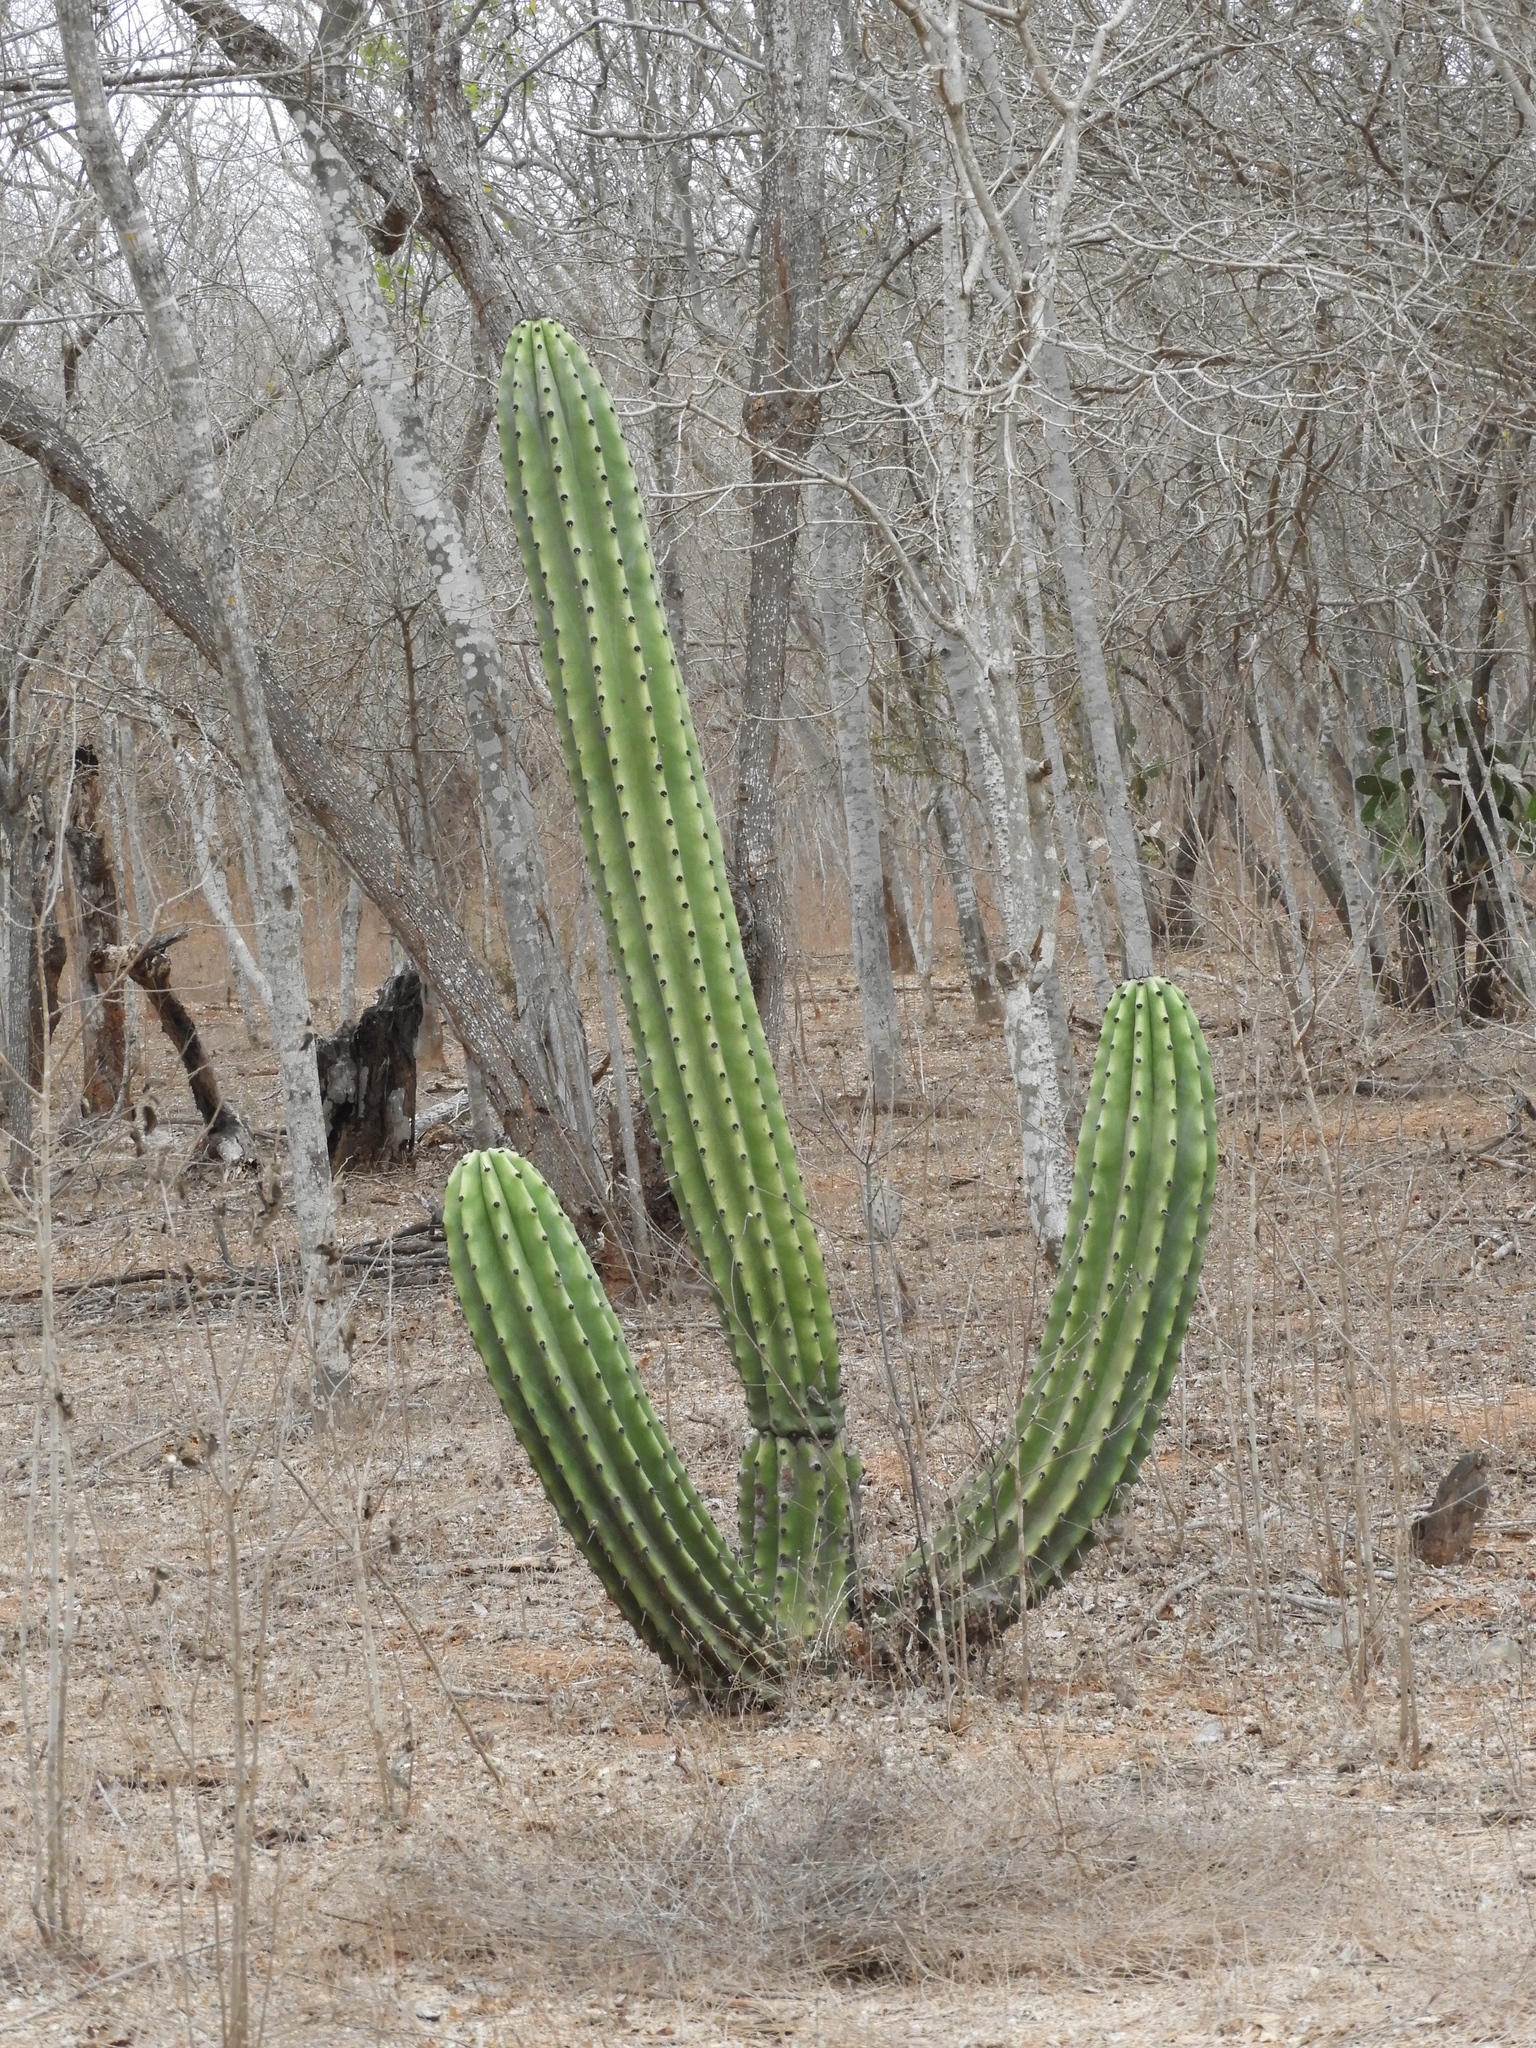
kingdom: Plantae
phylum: Tracheophyta
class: Magnoliopsida
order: Caryophyllales
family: Cactaceae
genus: Stenocereus
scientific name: Stenocereus martinezii
